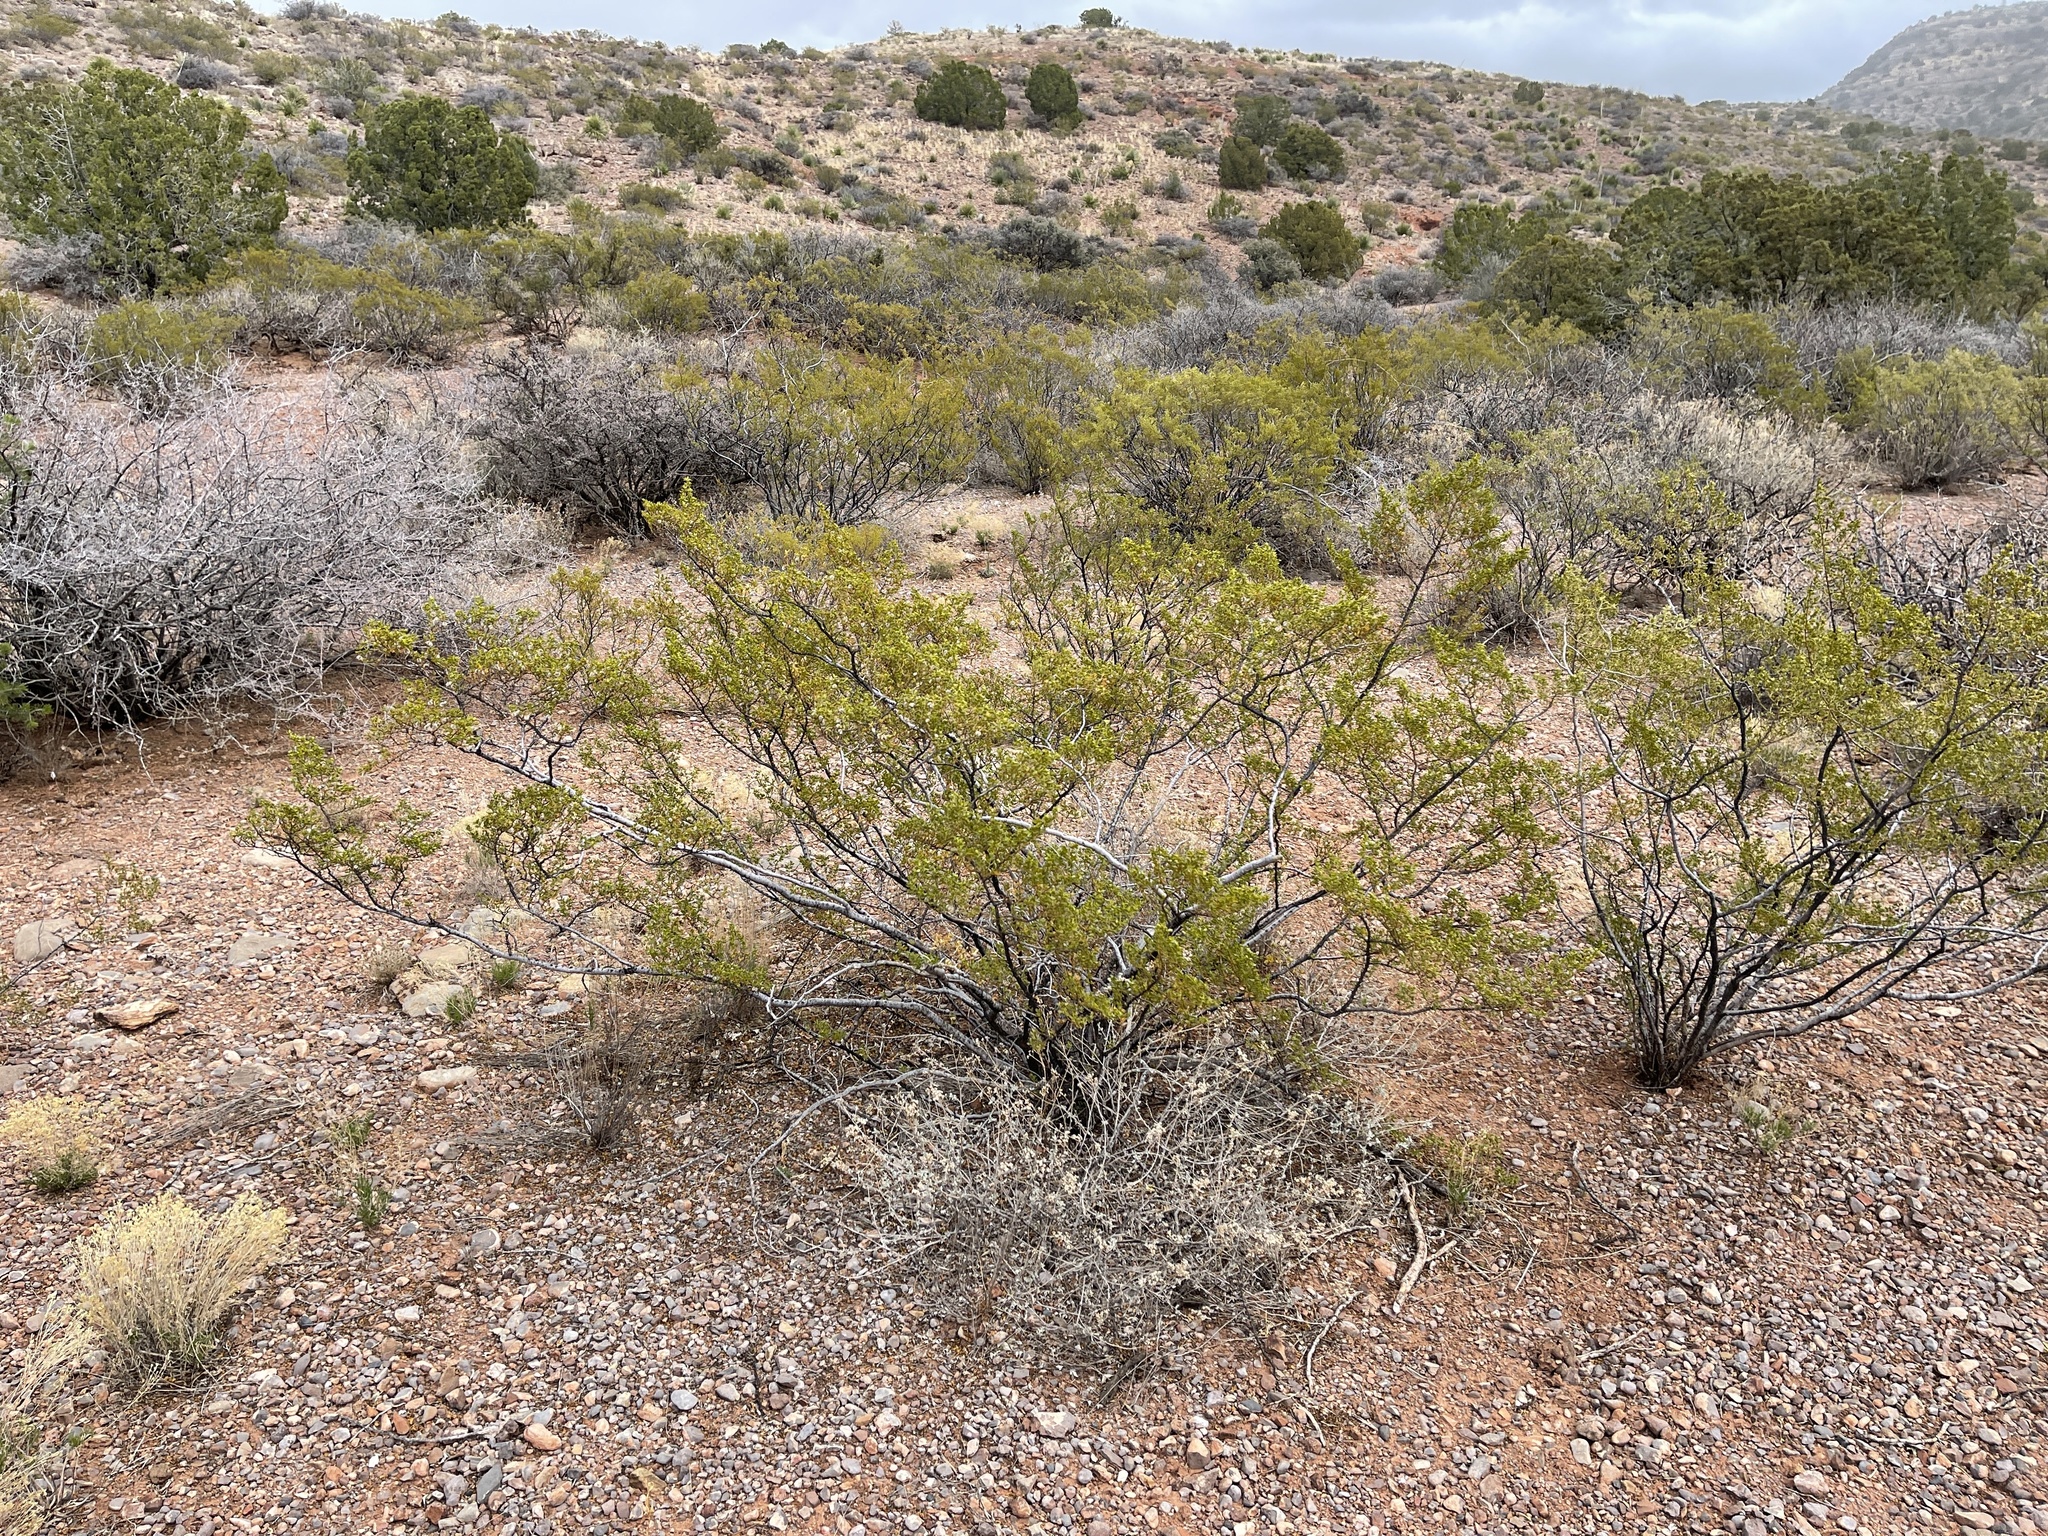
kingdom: Plantae
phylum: Tracheophyta
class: Magnoliopsida
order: Zygophyllales
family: Zygophyllaceae
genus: Larrea
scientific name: Larrea tridentata
